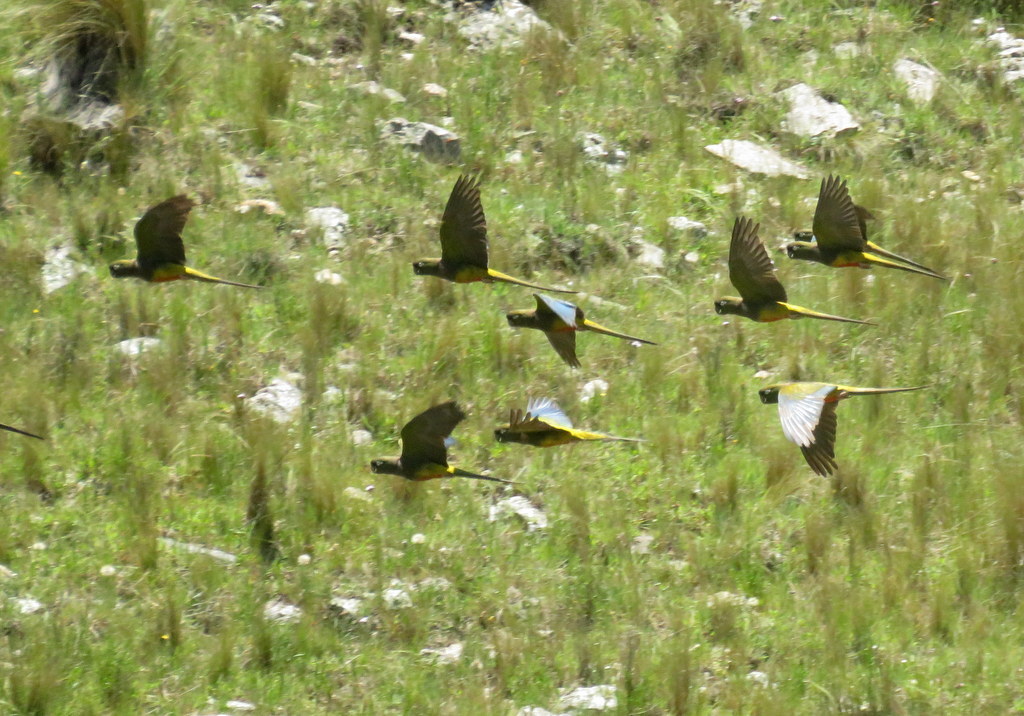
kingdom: Animalia
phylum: Chordata
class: Aves
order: Psittaciformes
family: Psittacidae
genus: Cyanoliseus
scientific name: Cyanoliseus patagonus
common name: Burrowing parrot
